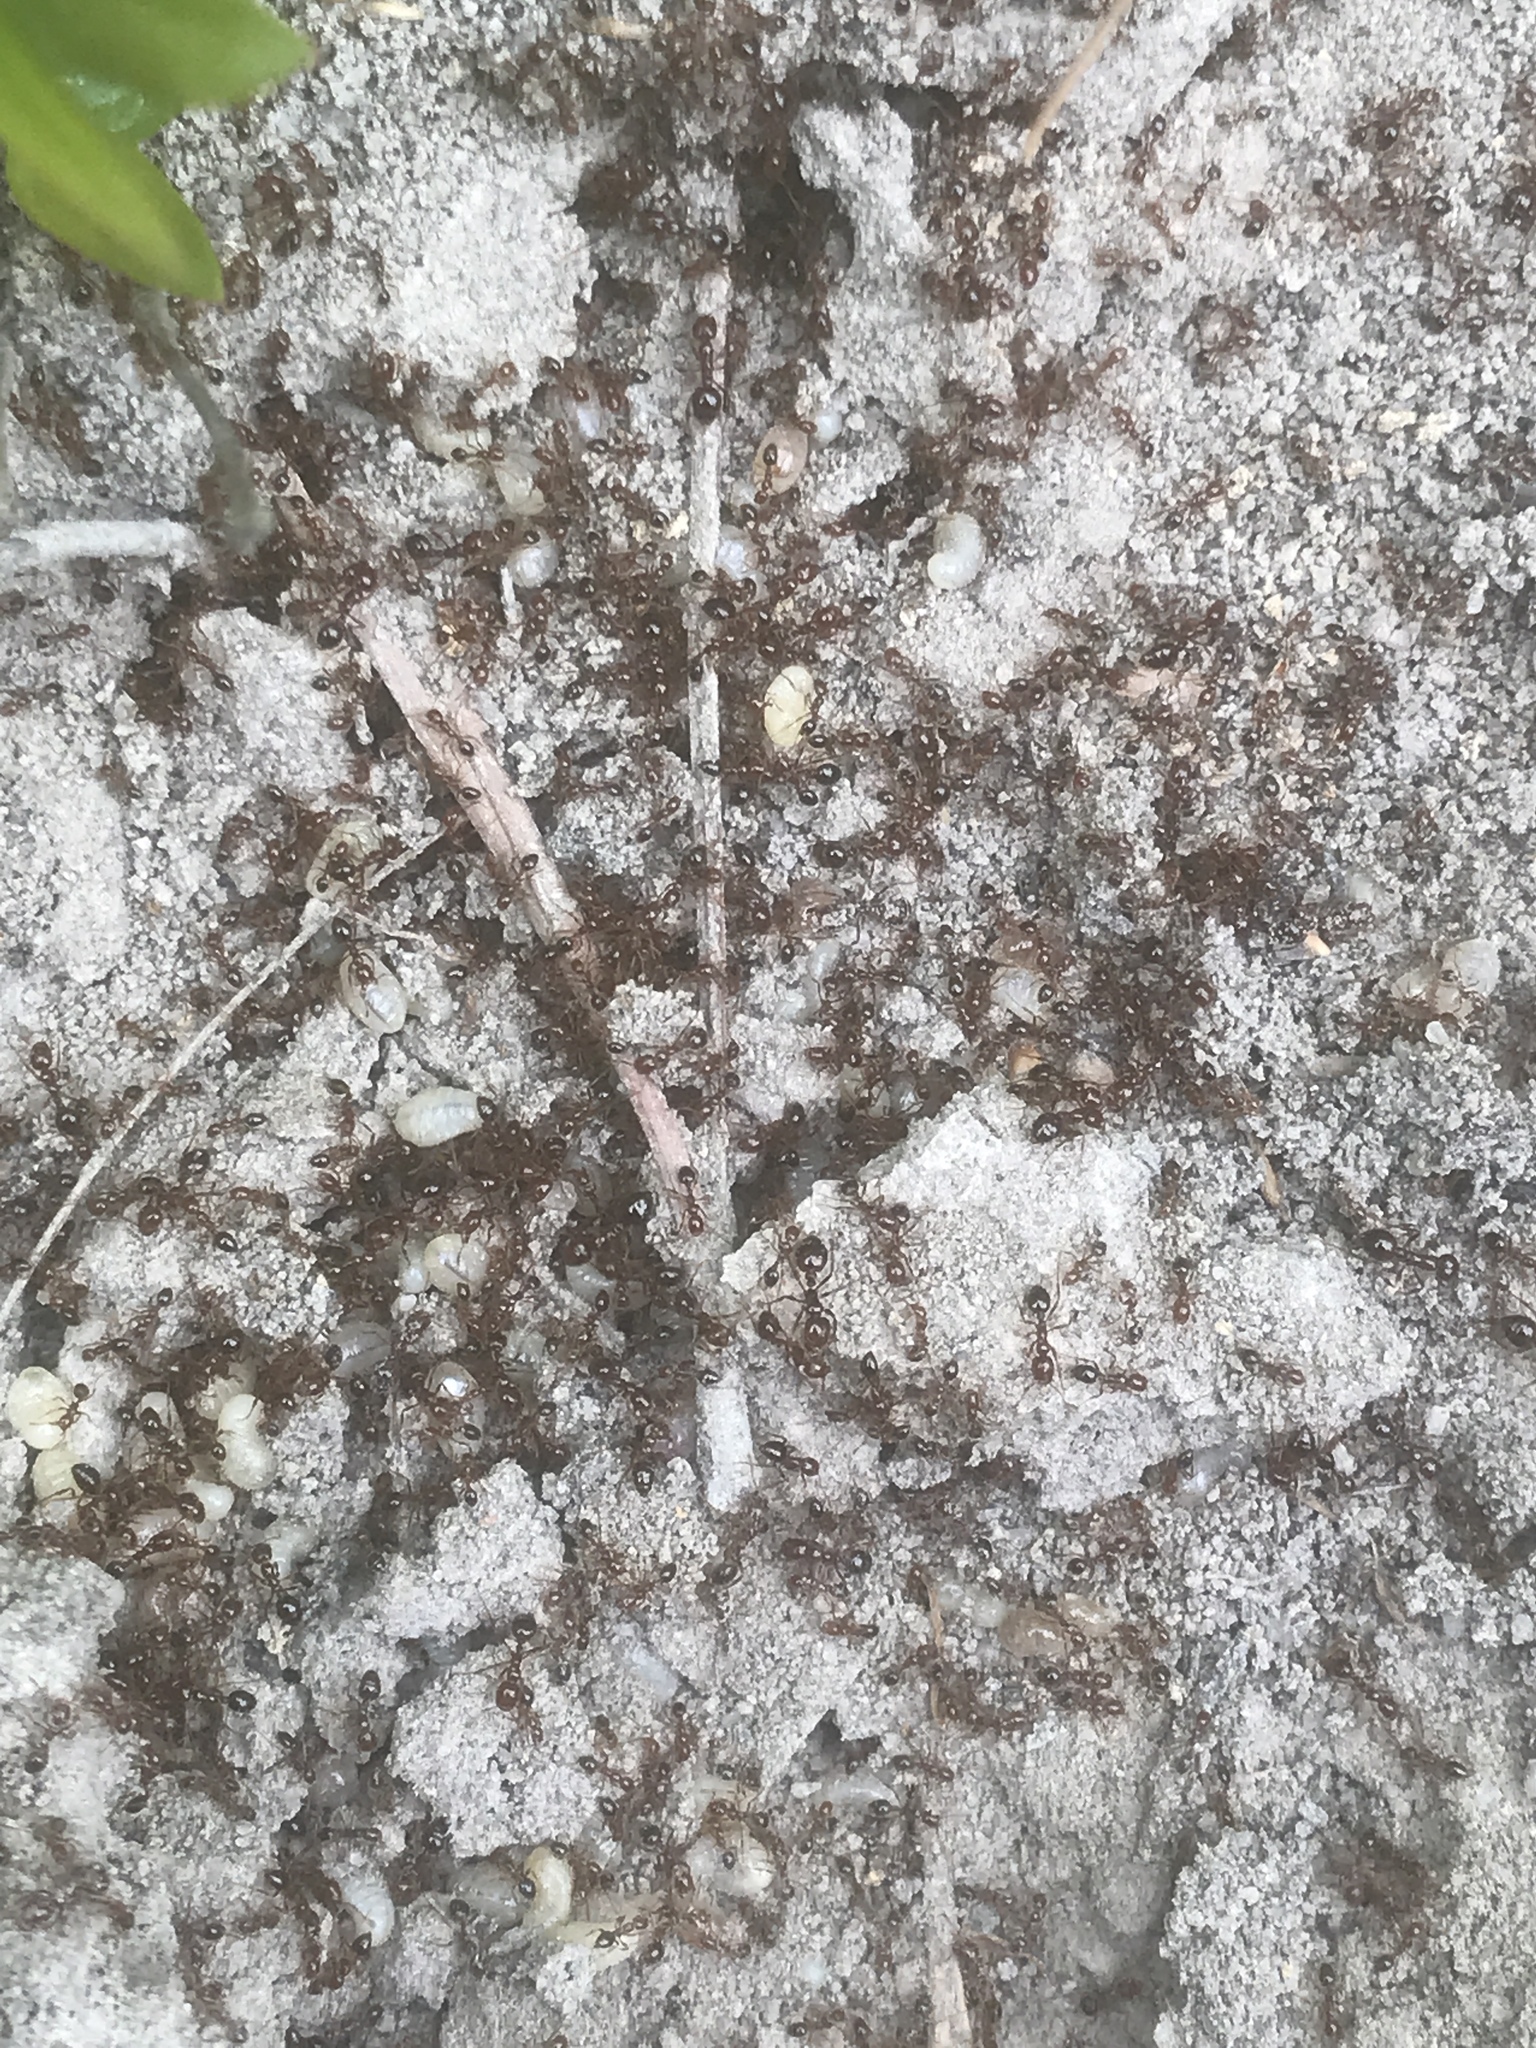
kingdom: Animalia
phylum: Arthropoda
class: Insecta
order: Hymenoptera
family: Formicidae
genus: Solenopsis
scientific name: Solenopsis invicta
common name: Red imported fire ant
